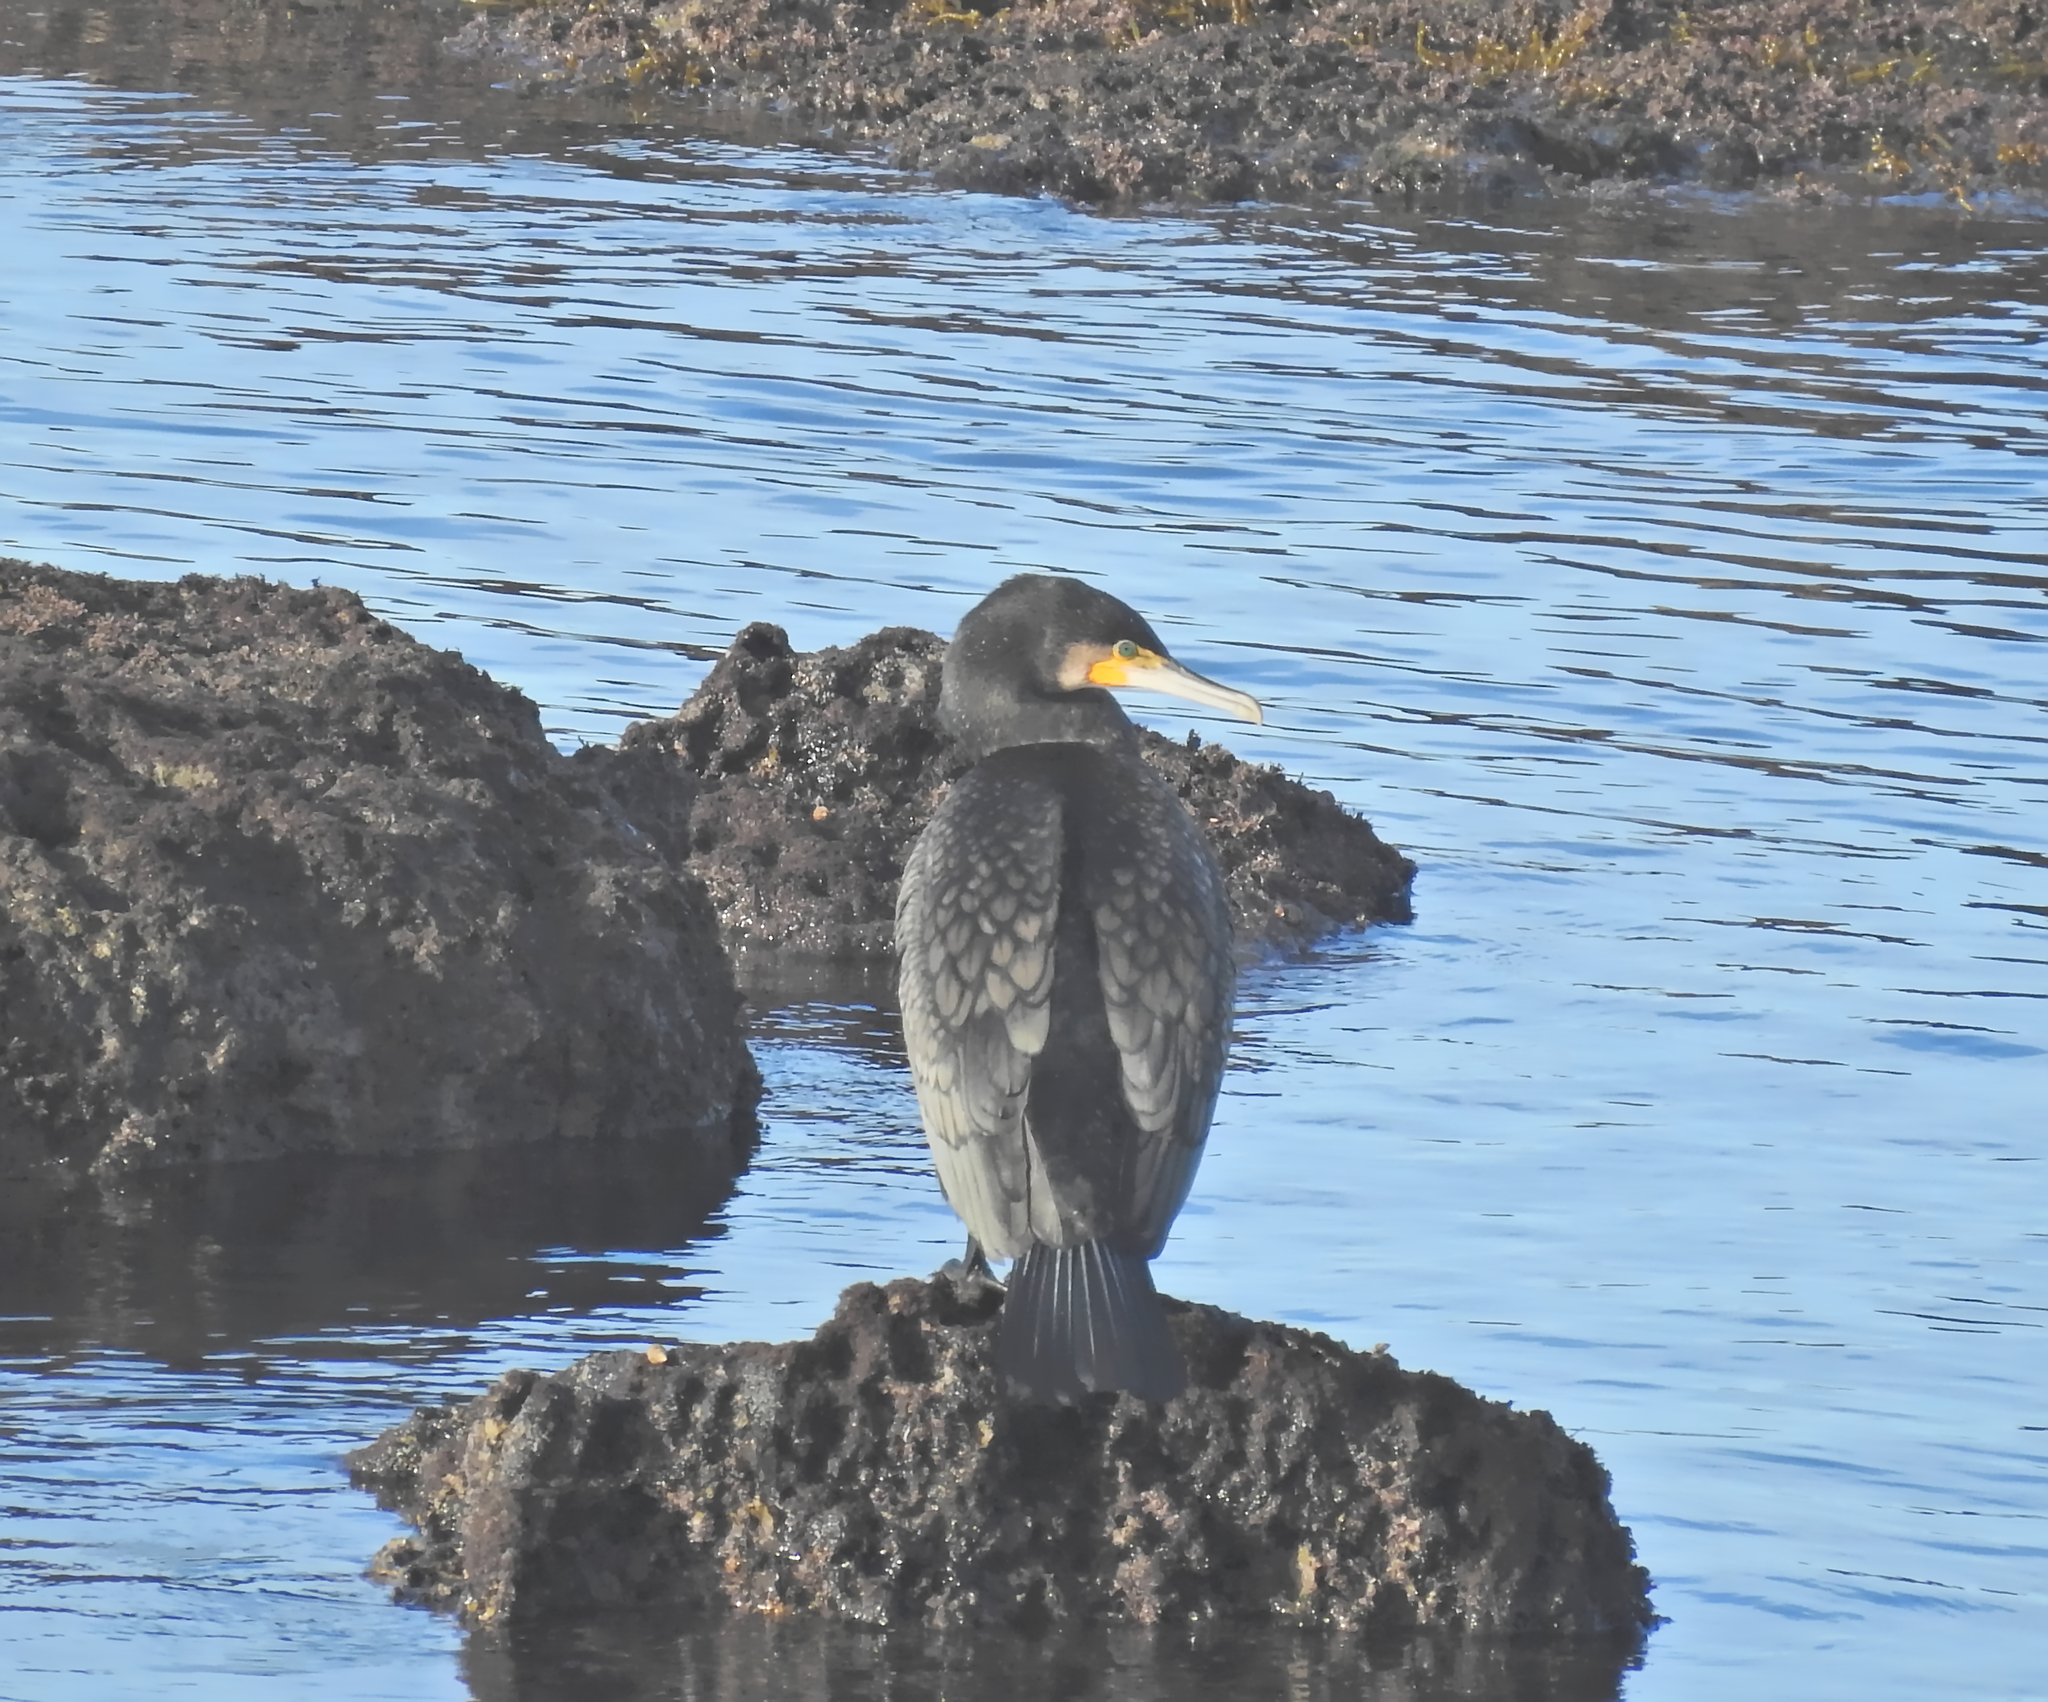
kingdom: Animalia
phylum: Chordata
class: Aves
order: Suliformes
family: Phalacrocoracidae
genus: Phalacrocorax
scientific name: Phalacrocorax carbo
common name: Great cormorant
